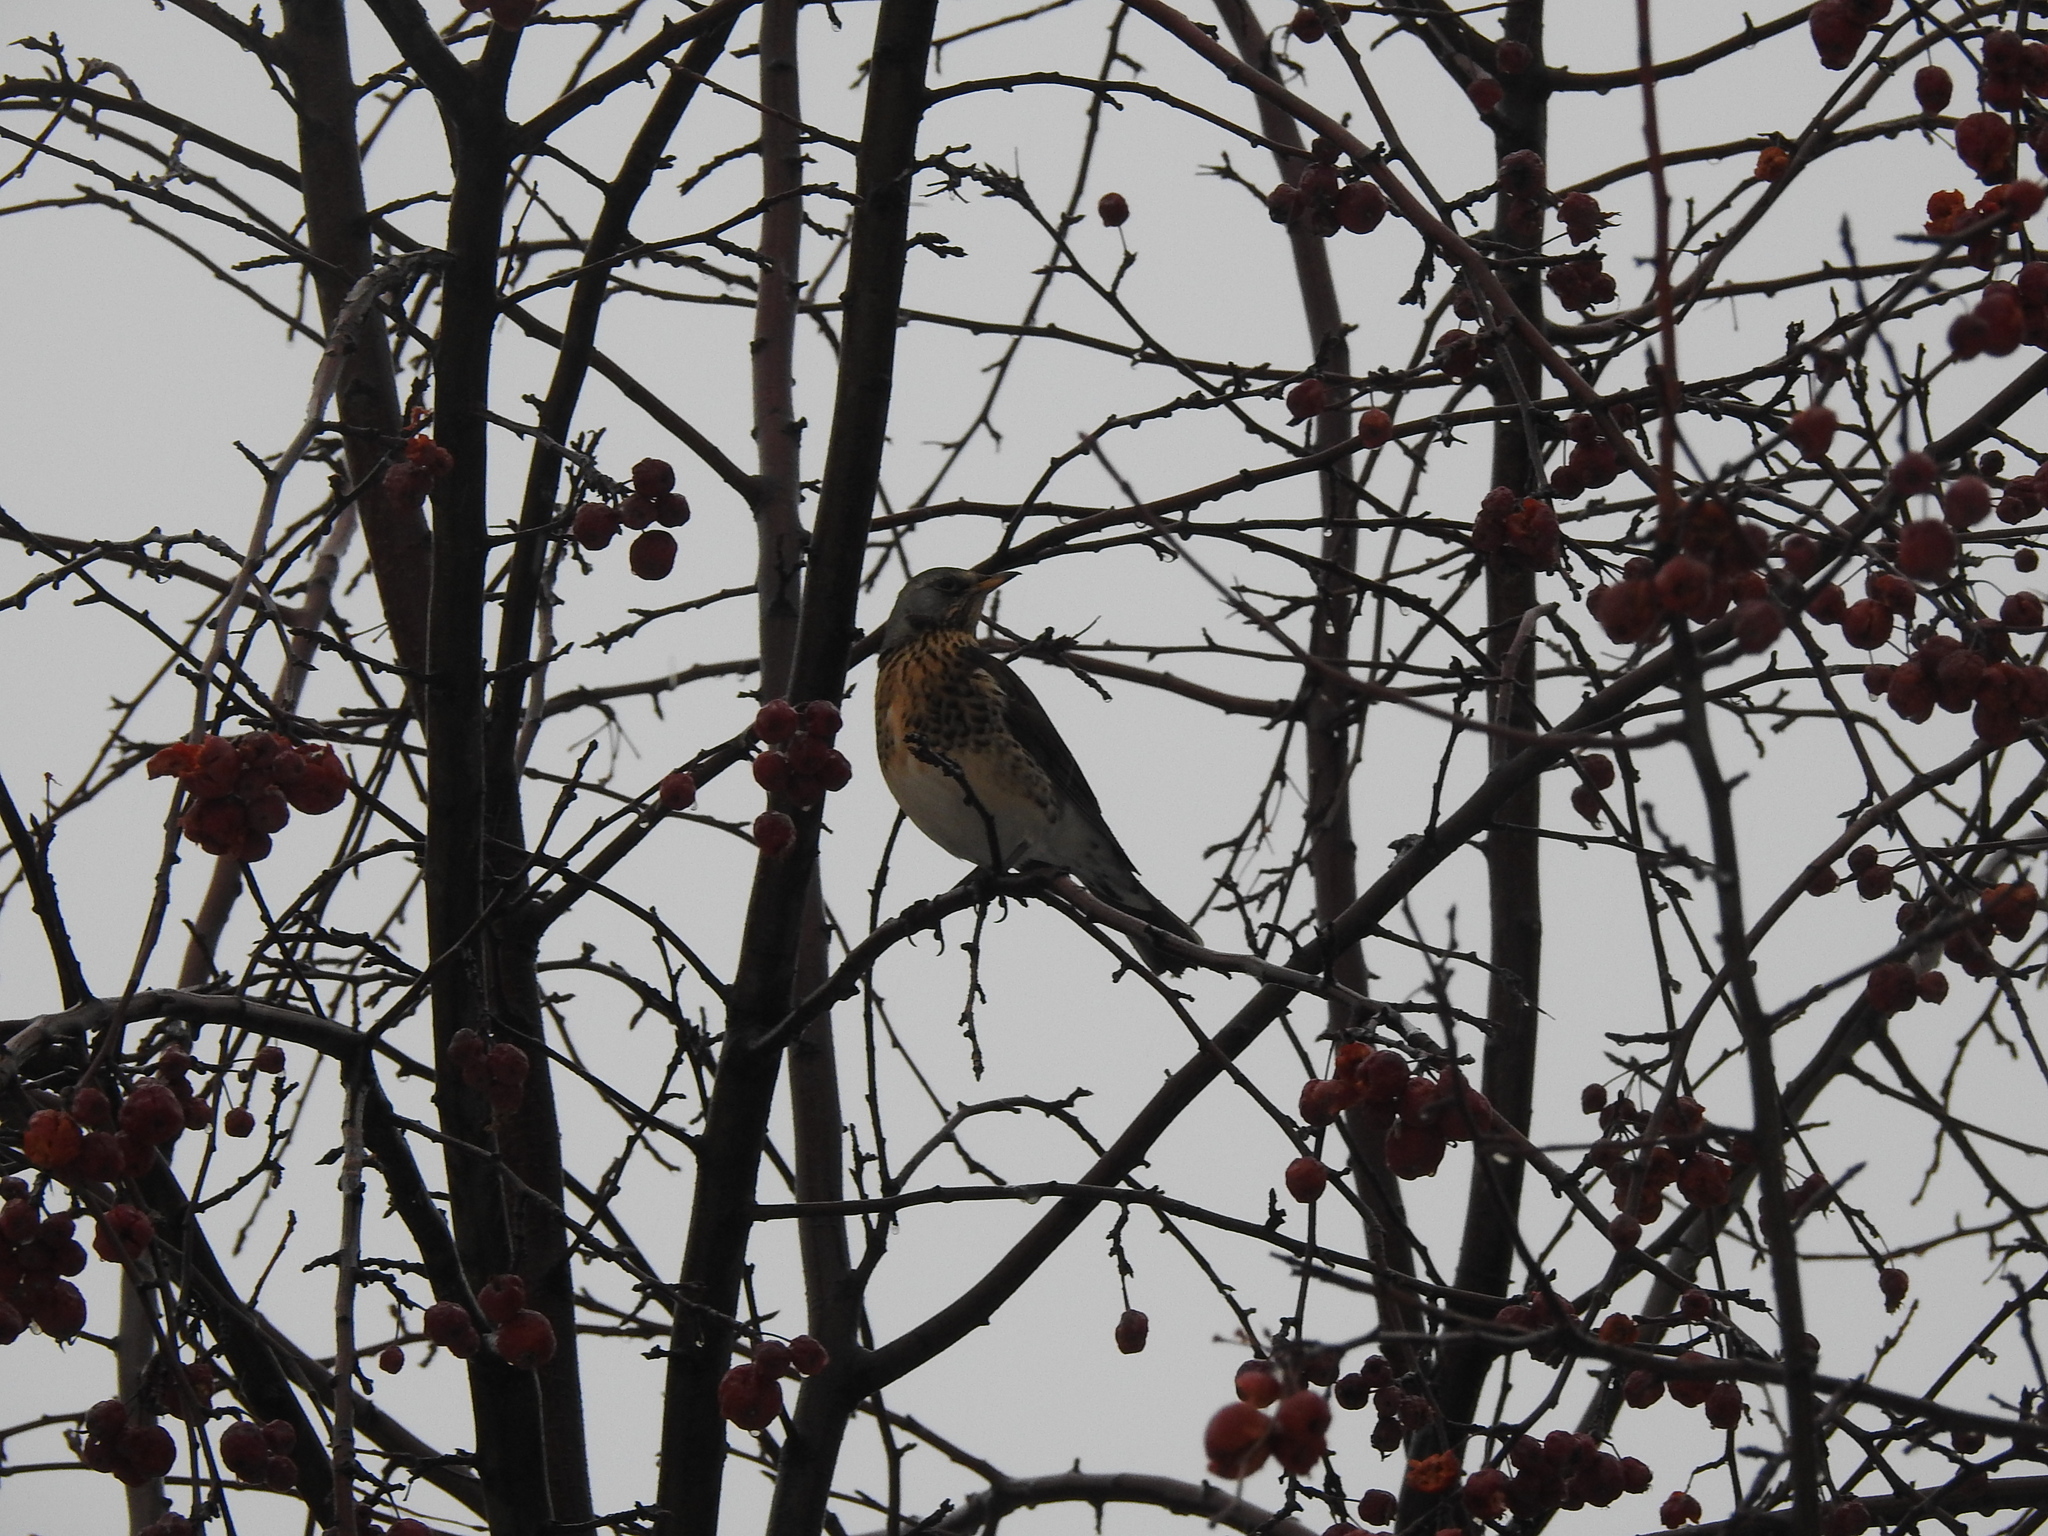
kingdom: Animalia
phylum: Chordata
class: Aves
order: Passeriformes
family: Turdidae
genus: Turdus
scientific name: Turdus pilaris
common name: Fieldfare
